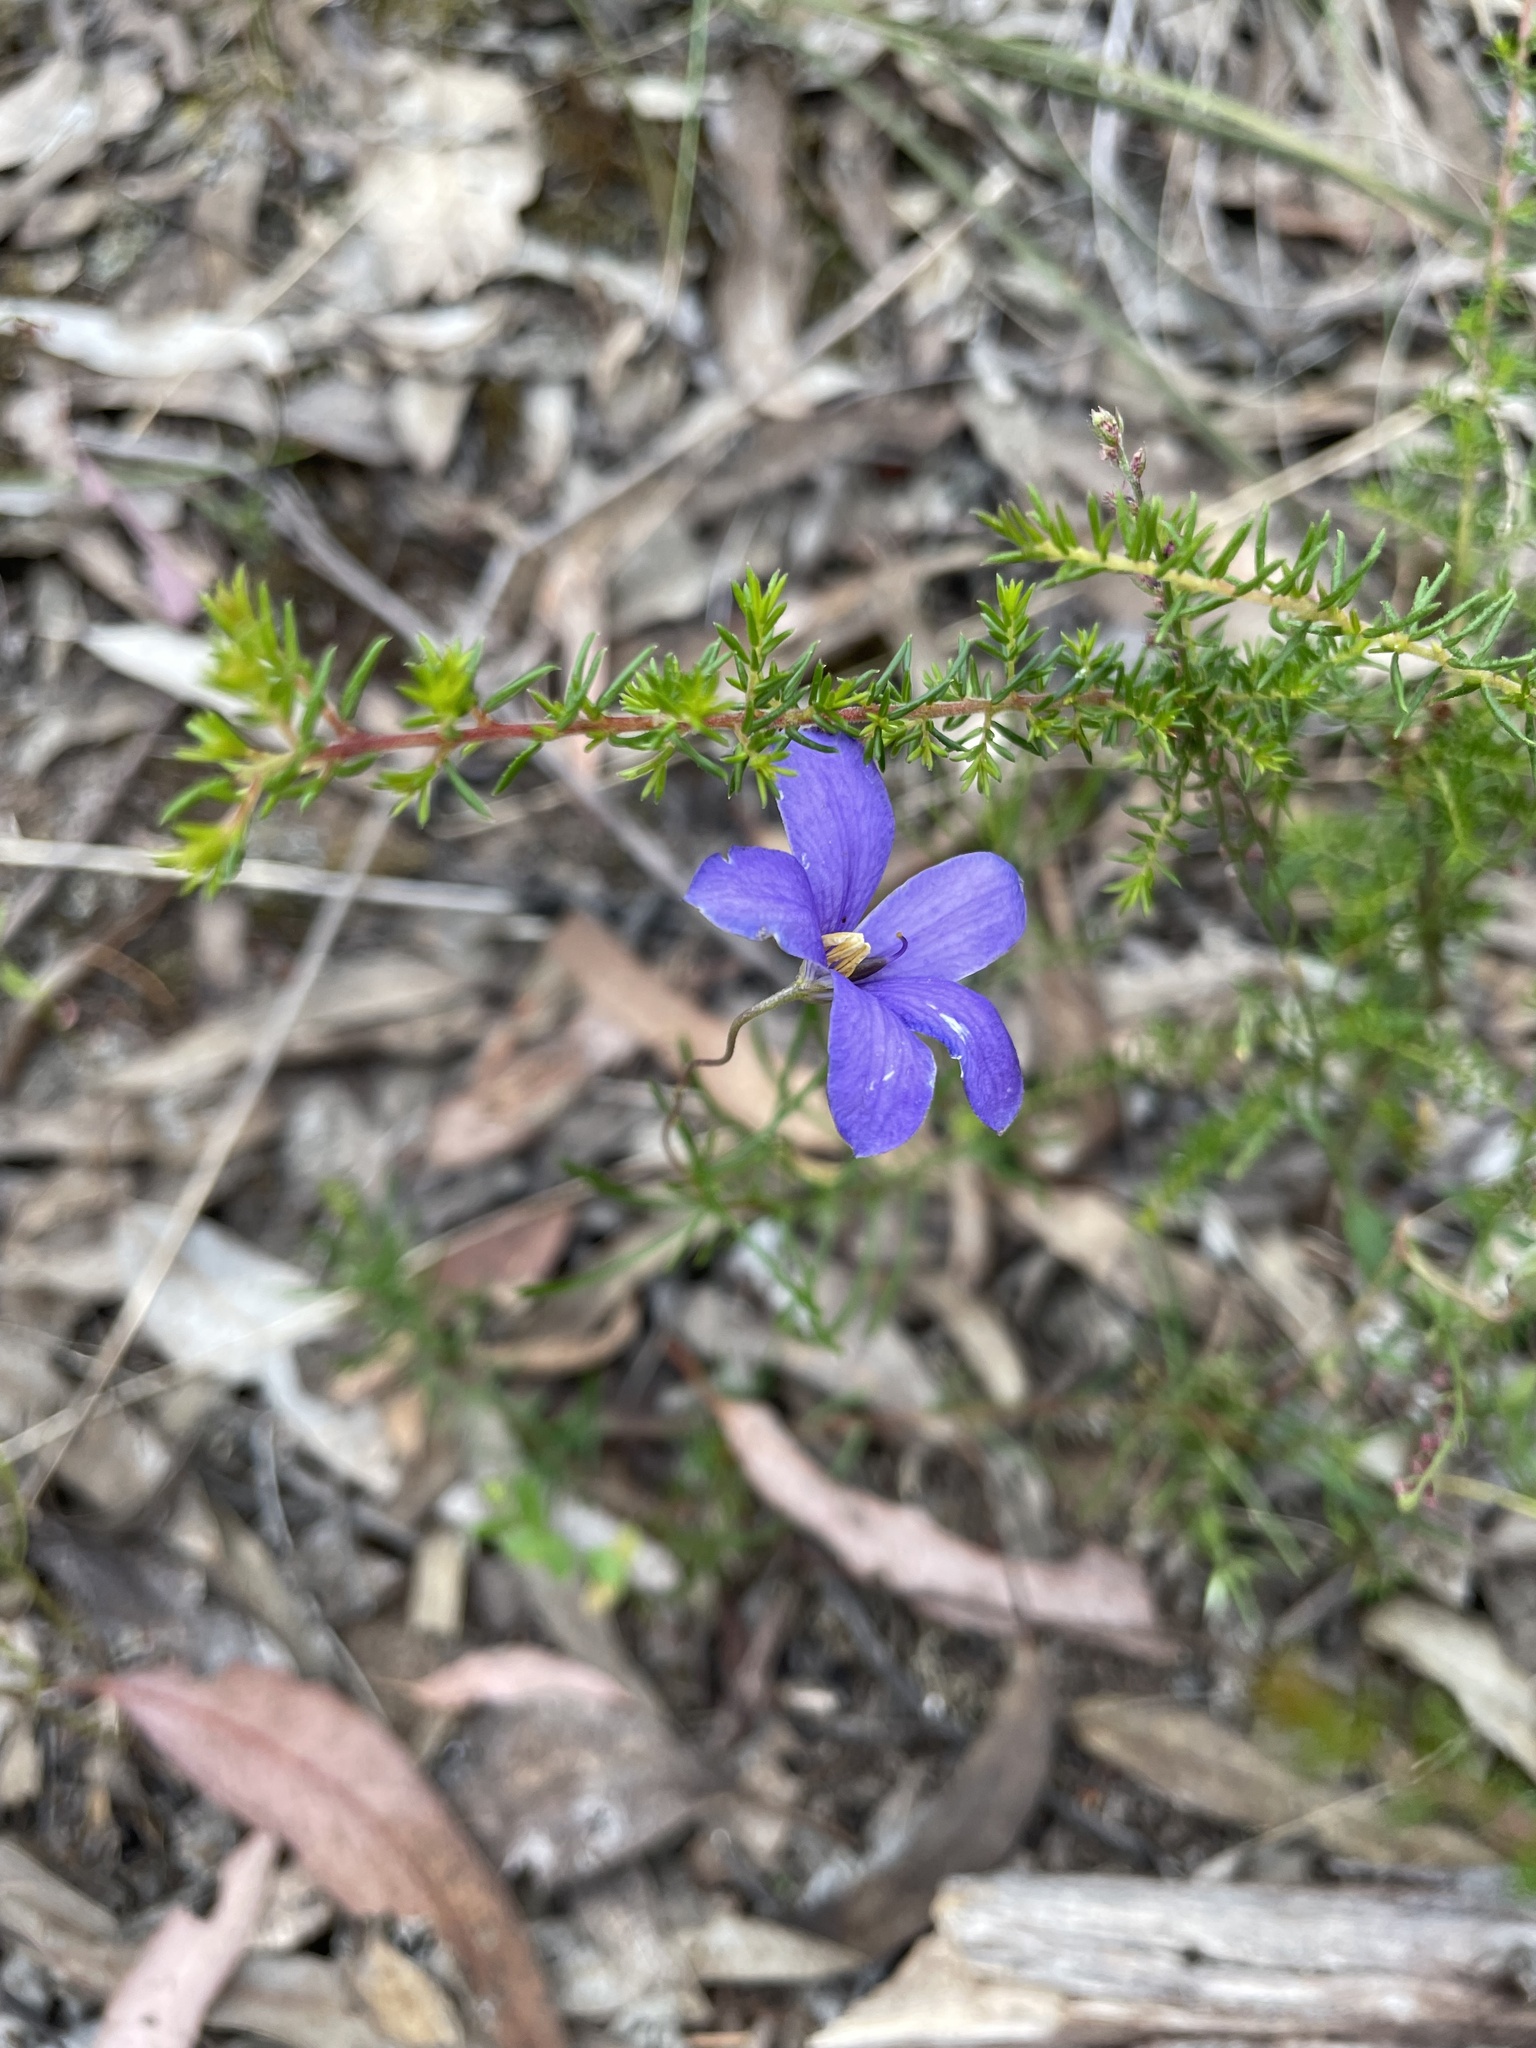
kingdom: Plantae
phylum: Tracheophyta
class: Magnoliopsida
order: Apiales
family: Pittosporaceae
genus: Cheiranthera
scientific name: Cheiranthera linearis
